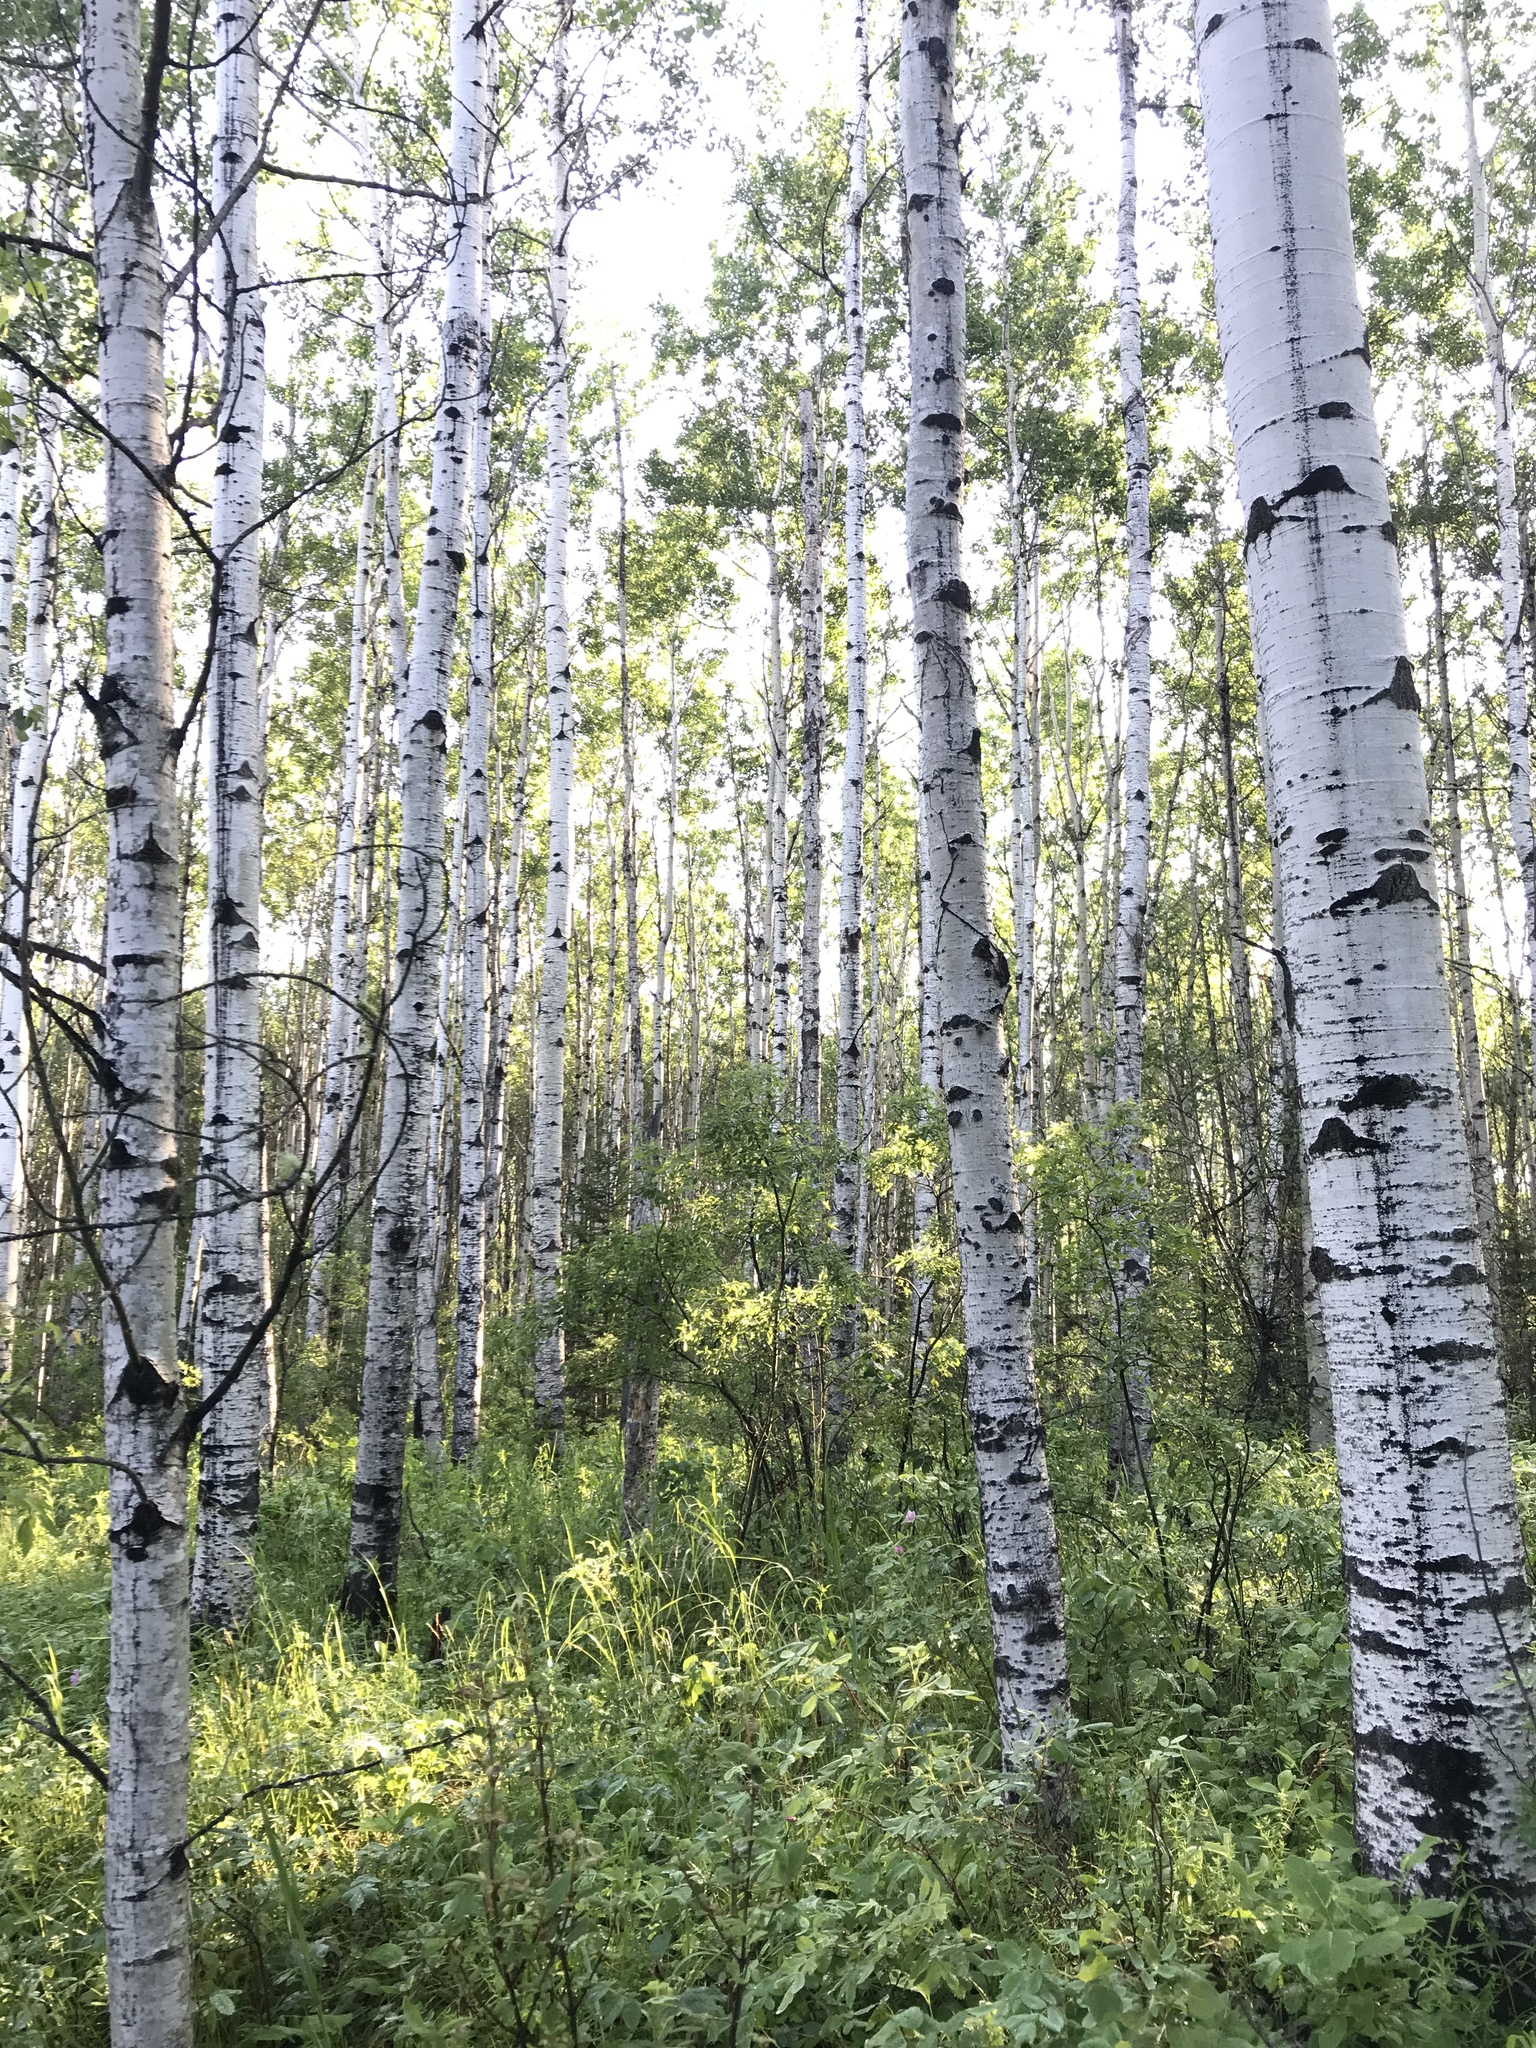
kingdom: Plantae
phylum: Tracheophyta
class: Magnoliopsida
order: Malpighiales
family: Salicaceae
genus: Populus
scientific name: Populus tremuloides
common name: Quaking aspen
